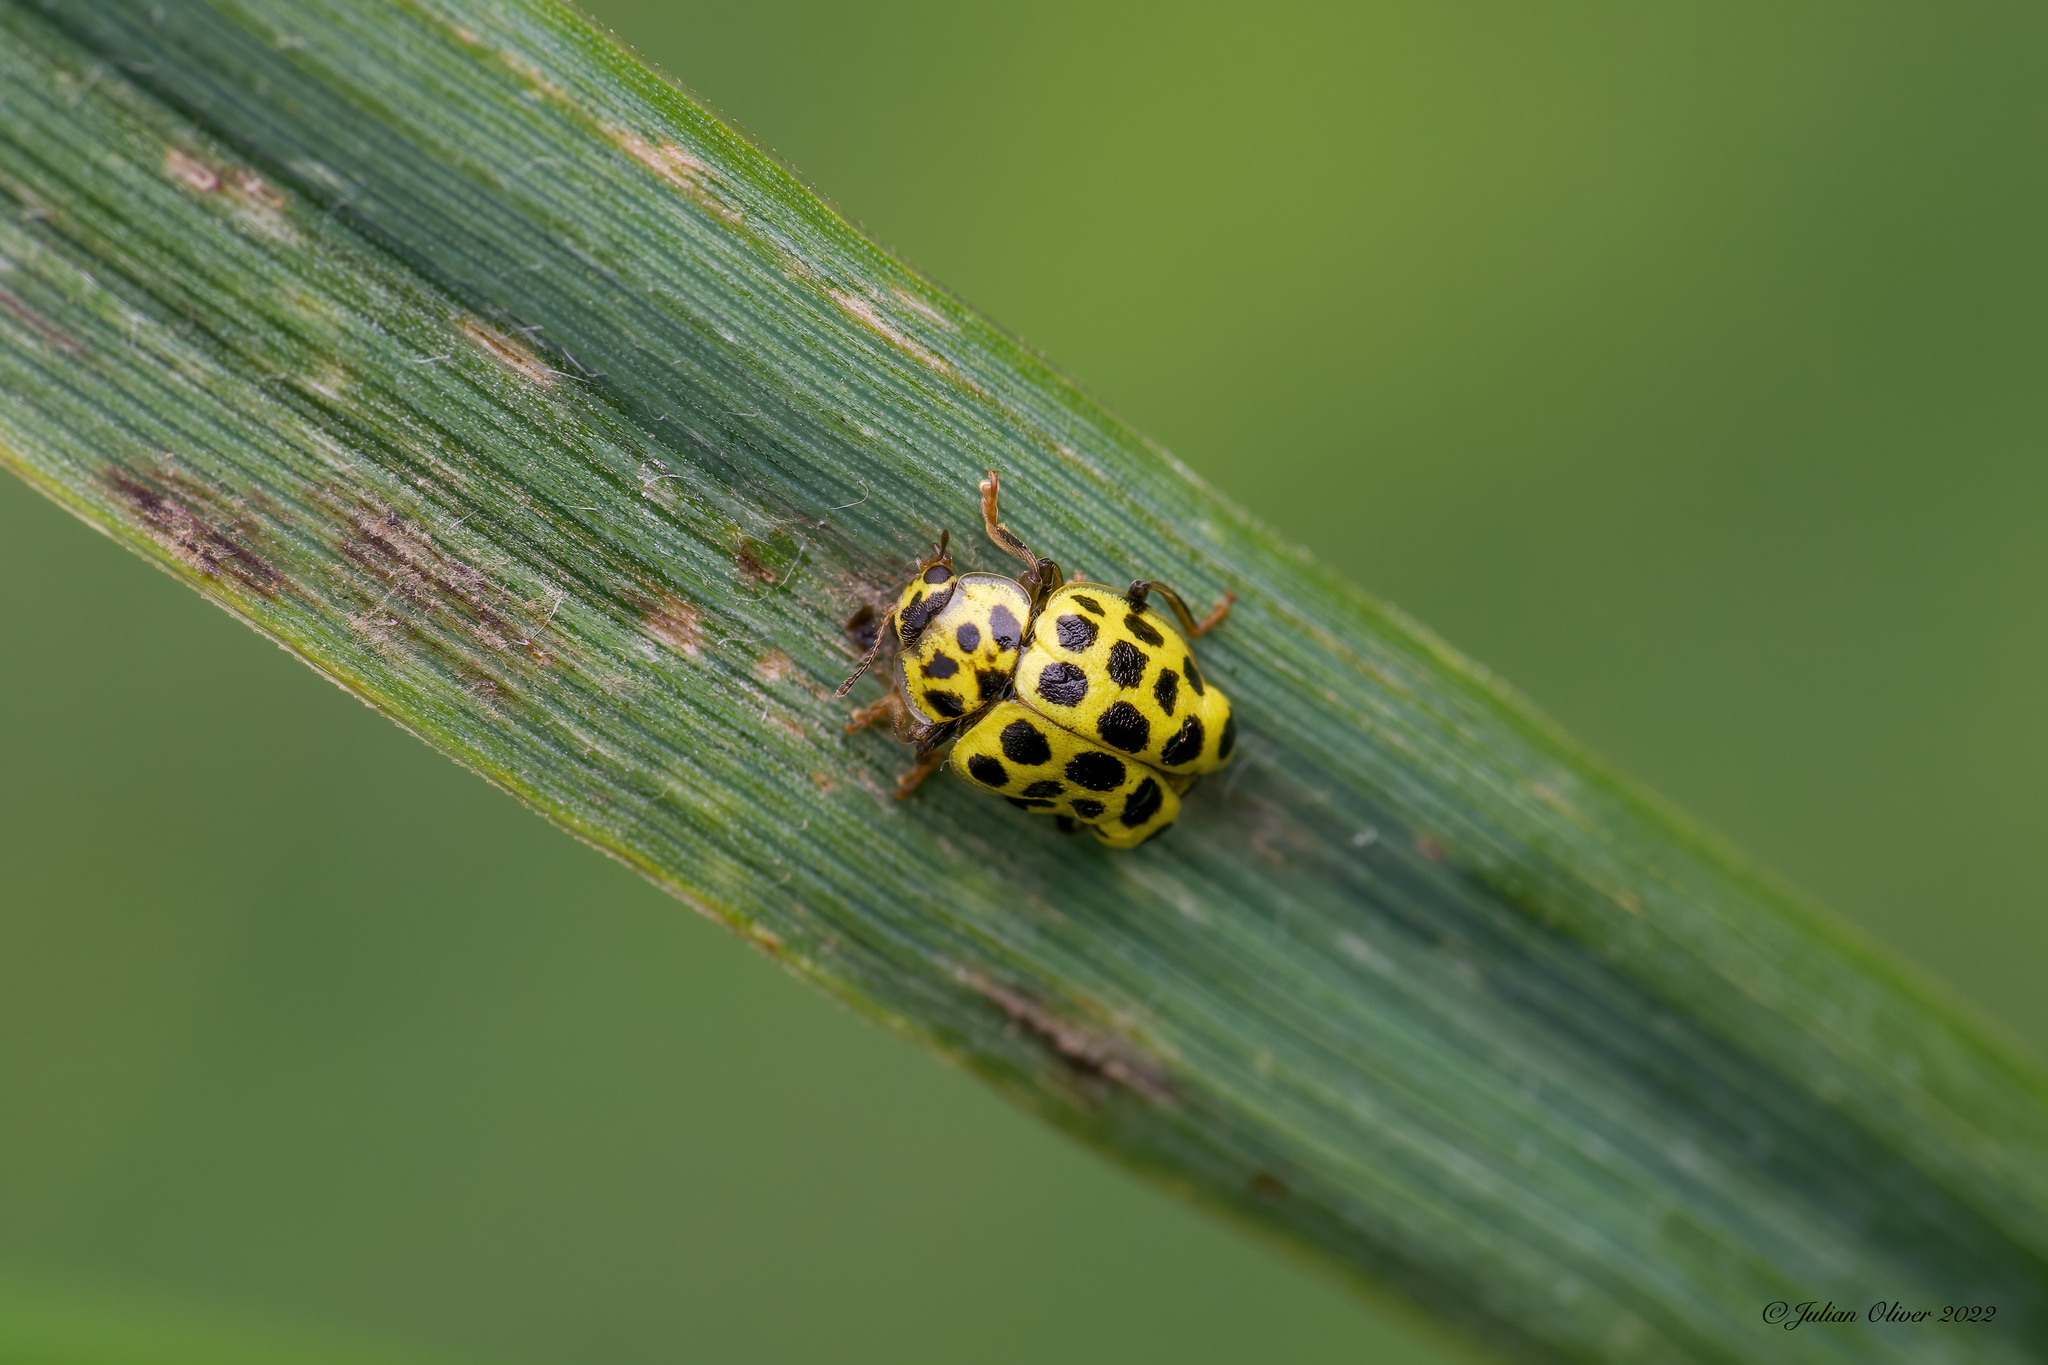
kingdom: Animalia
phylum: Arthropoda
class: Insecta
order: Coleoptera
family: Coccinellidae
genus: Psyllobora
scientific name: Psyllobora vigintiduopunctata
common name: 22-spot ladybird
